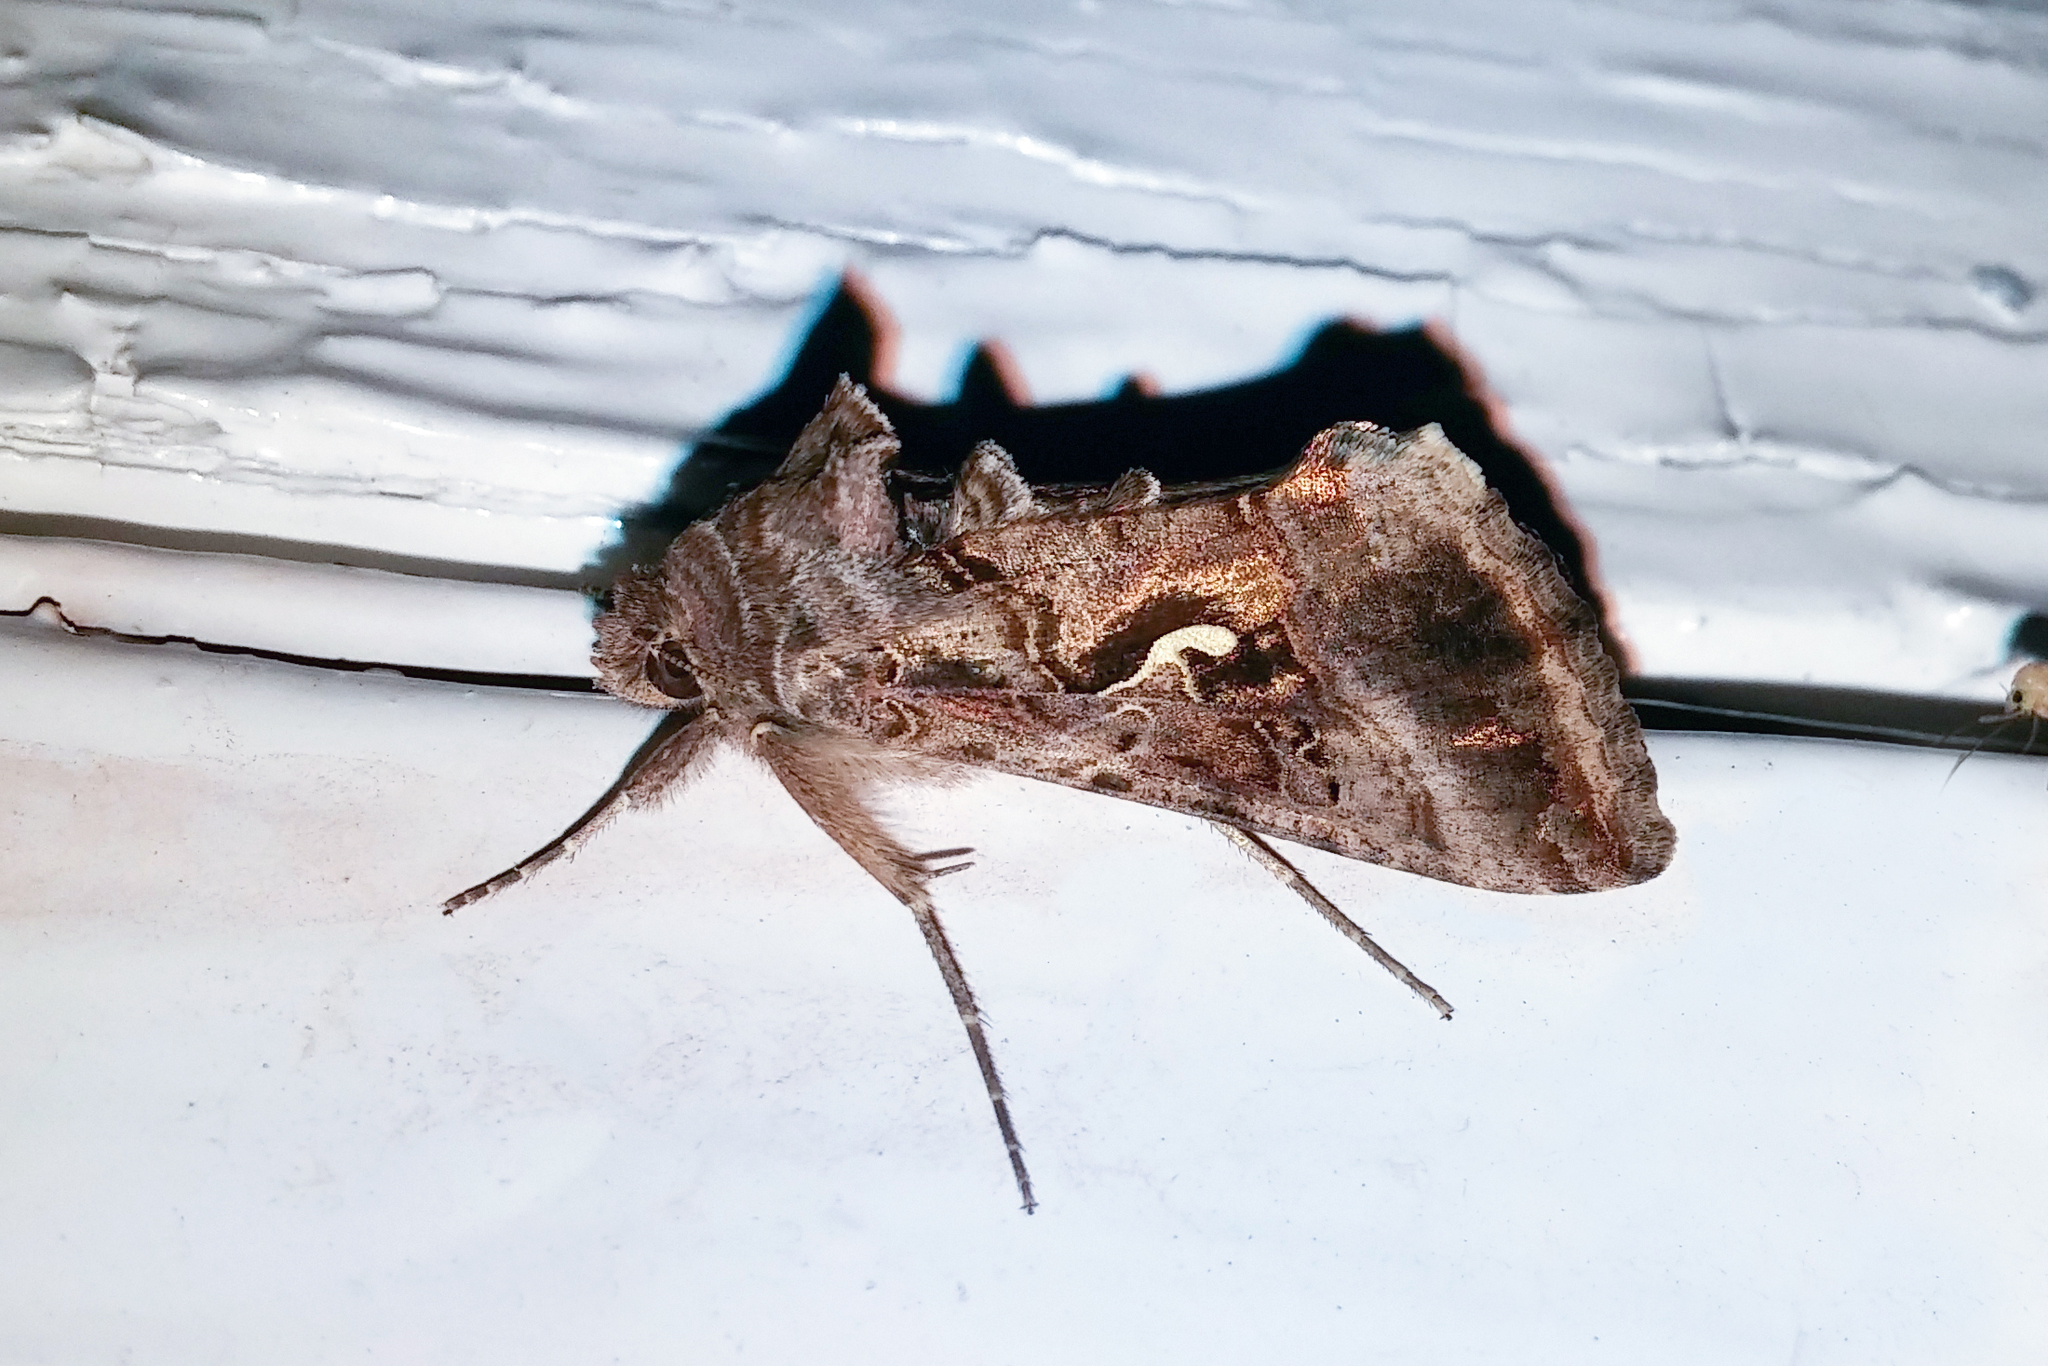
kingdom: Animalia
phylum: Arthropoda
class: Insecta
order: Lepidoptera
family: Noctuidae
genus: Autographa
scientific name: Autographa gamma
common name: Silver y
